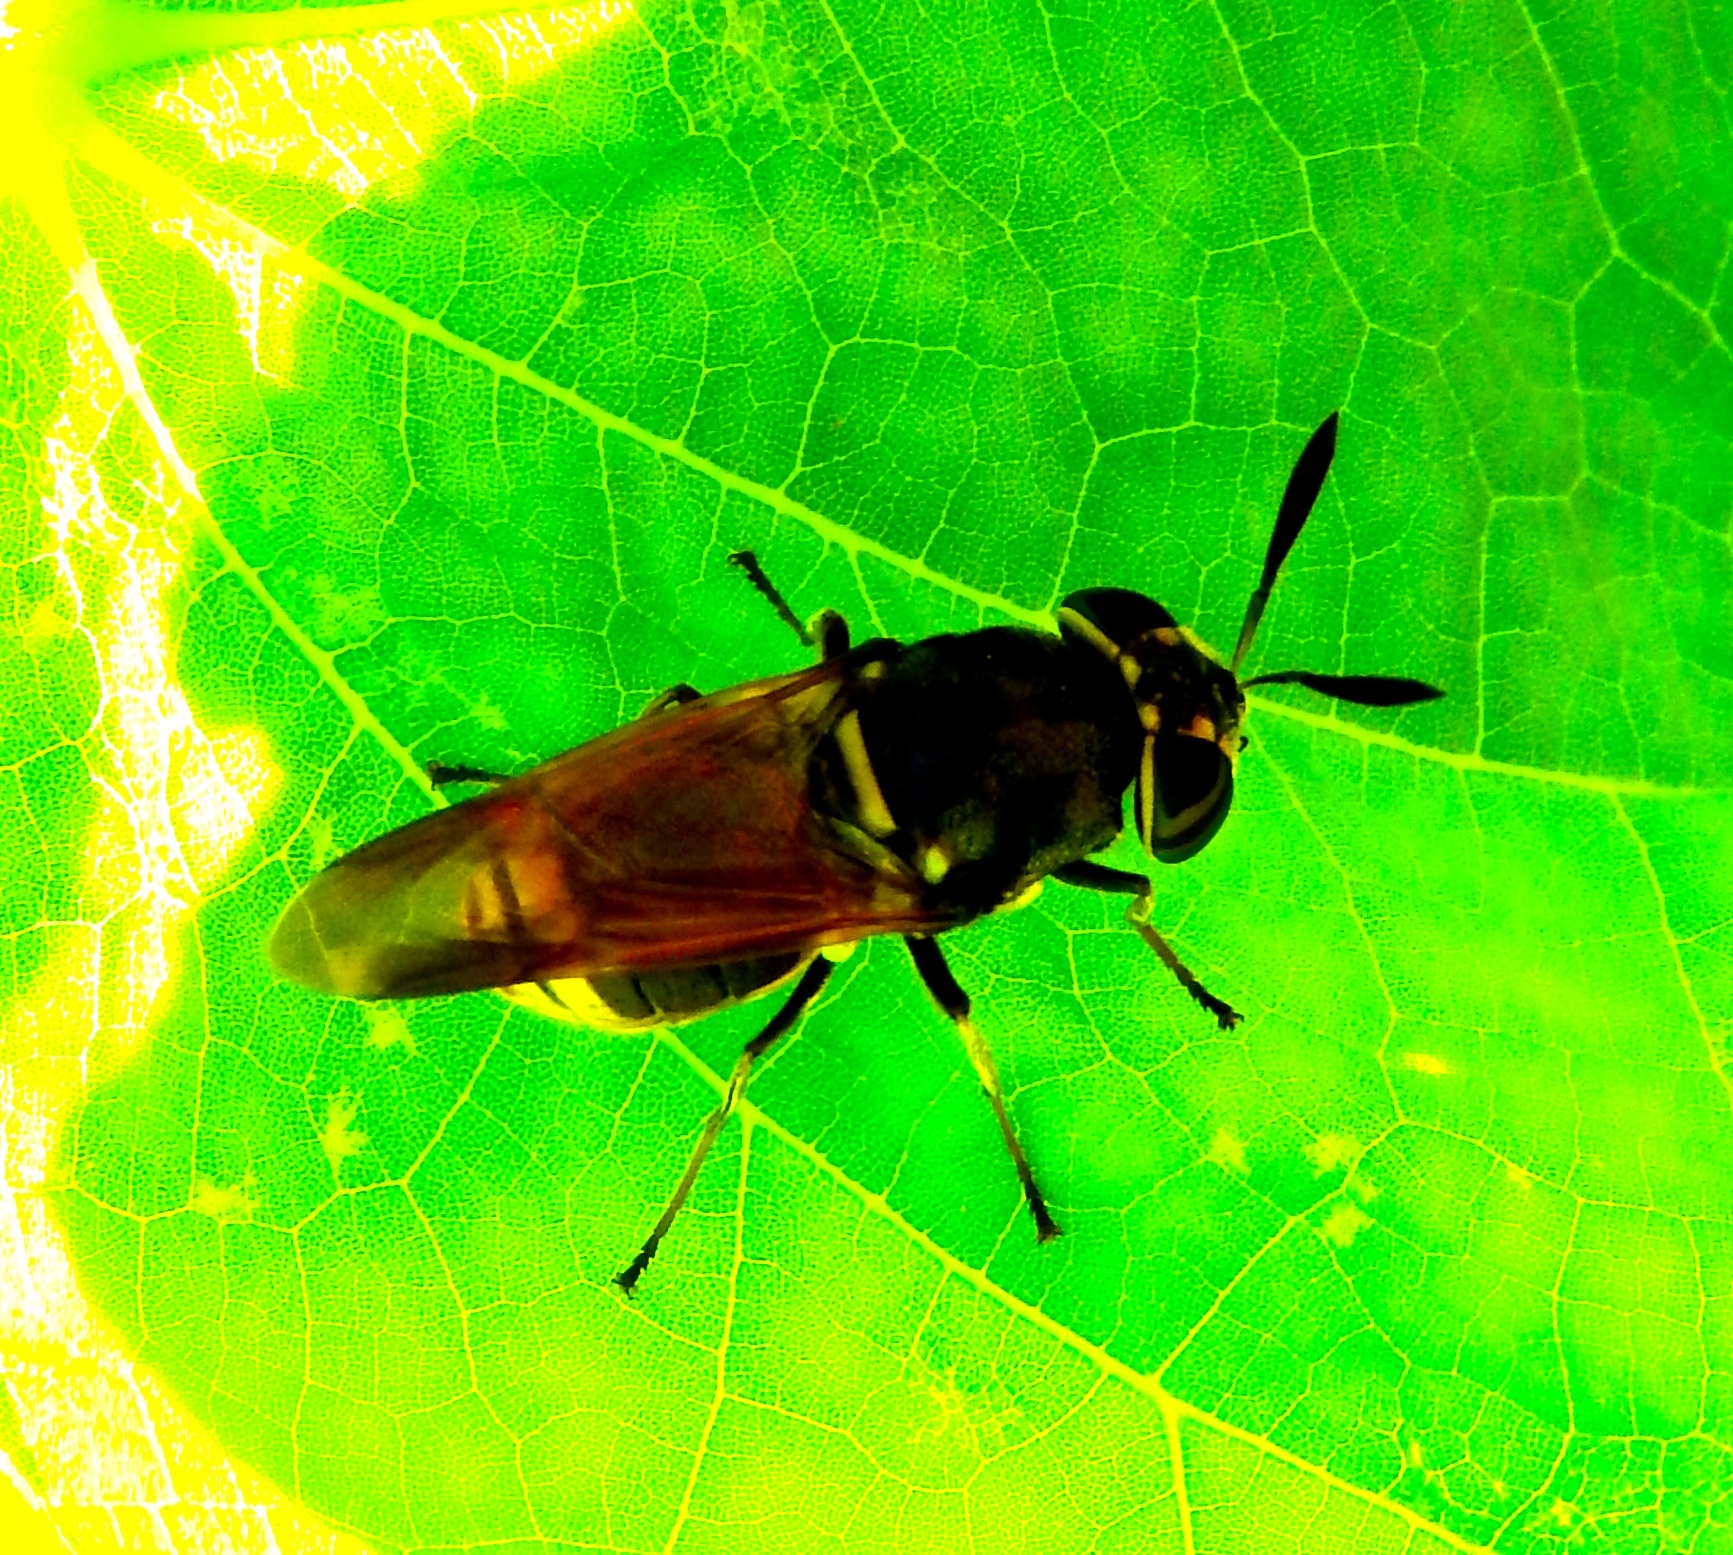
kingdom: Animalia
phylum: Arthropoda
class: Insecta
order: Diptera
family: Stratiomyidae
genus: Hoplitimyia
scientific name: Hoplitimyia
